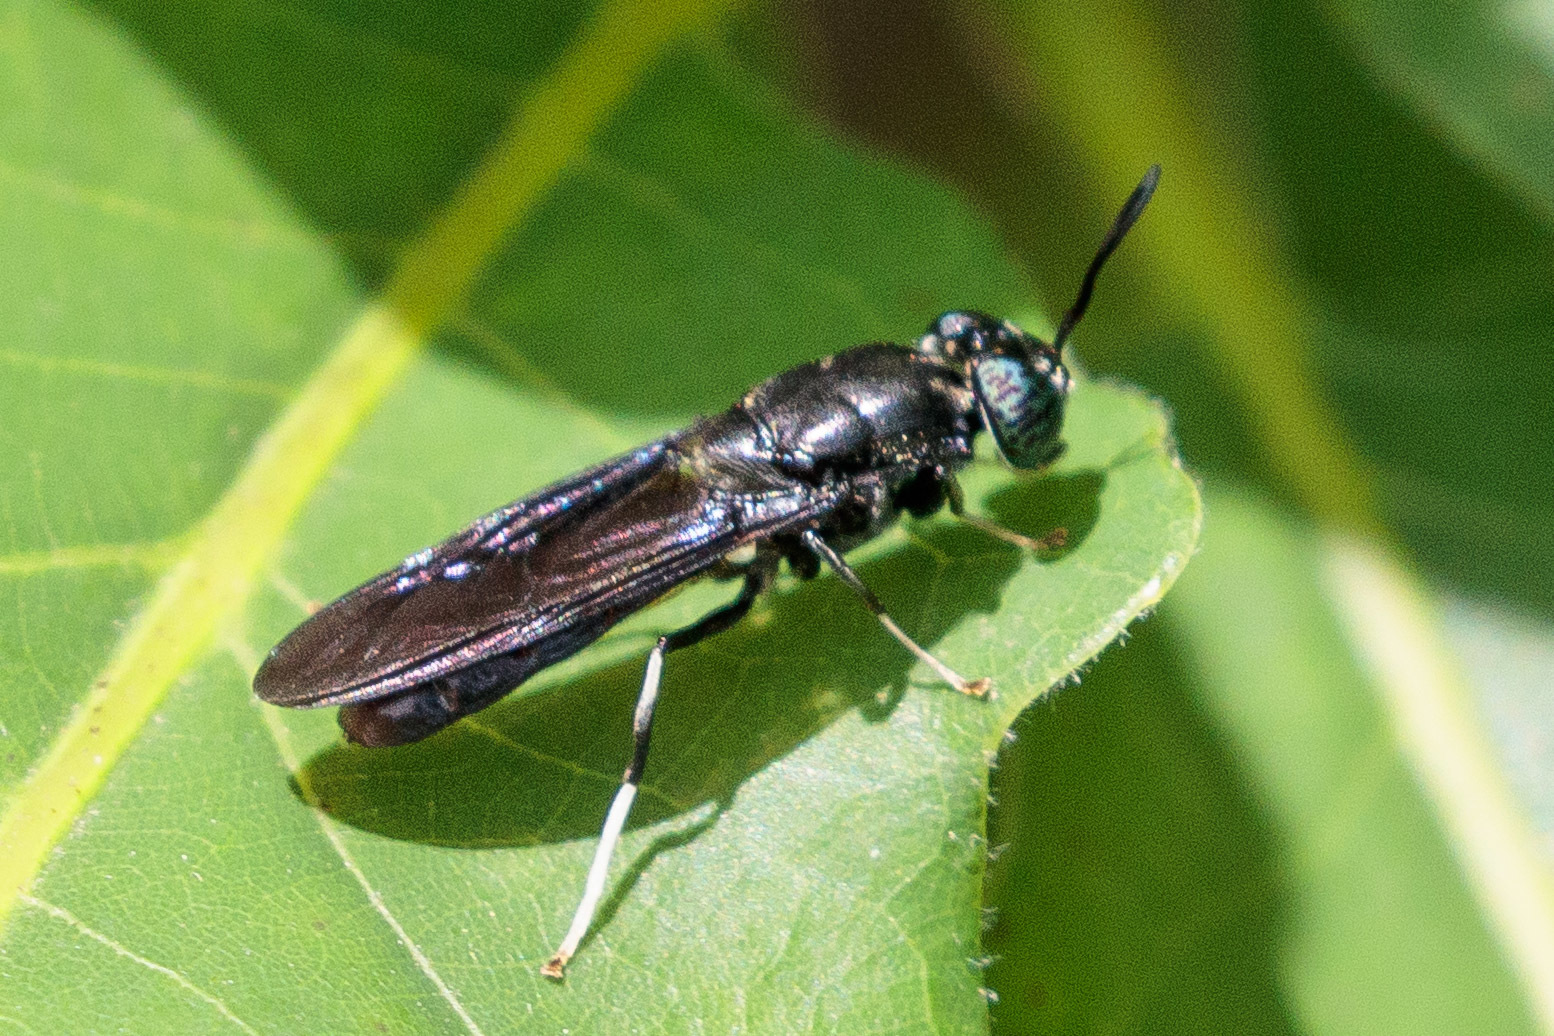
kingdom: Animalia
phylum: Arthropoda
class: Insecta
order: Diptera
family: Stratiomyidae
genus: Hermetia
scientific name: Hermetia illucens
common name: Black soldier fly
